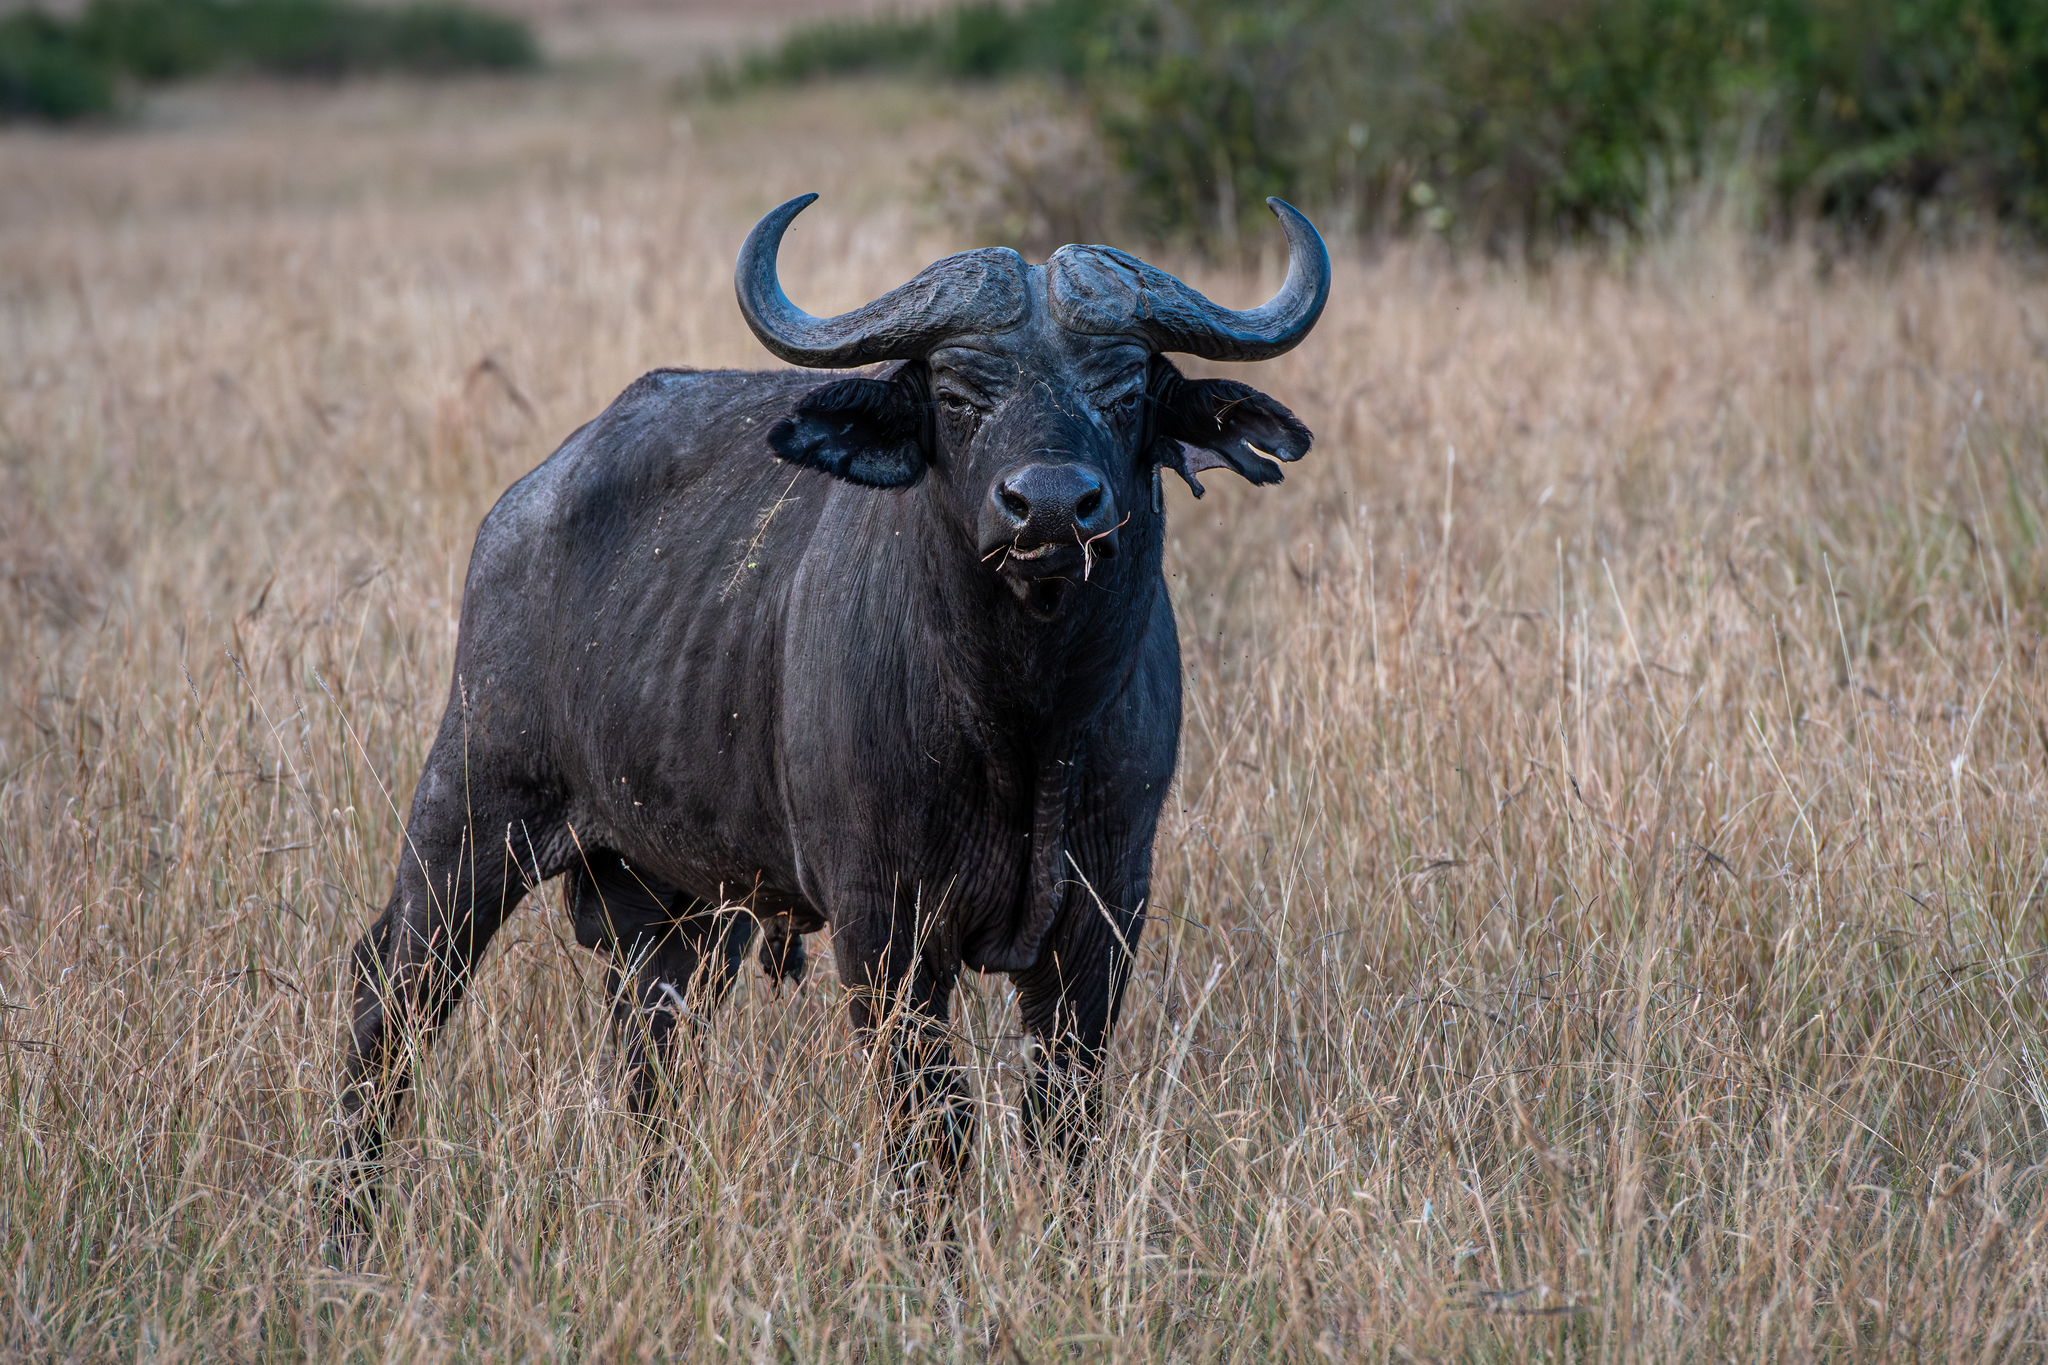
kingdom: Animalia
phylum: Chordata
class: Mammalia
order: Artiodactyla
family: Bovidae
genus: Syncerus
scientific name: Syncerus caffer
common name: African buffalo
